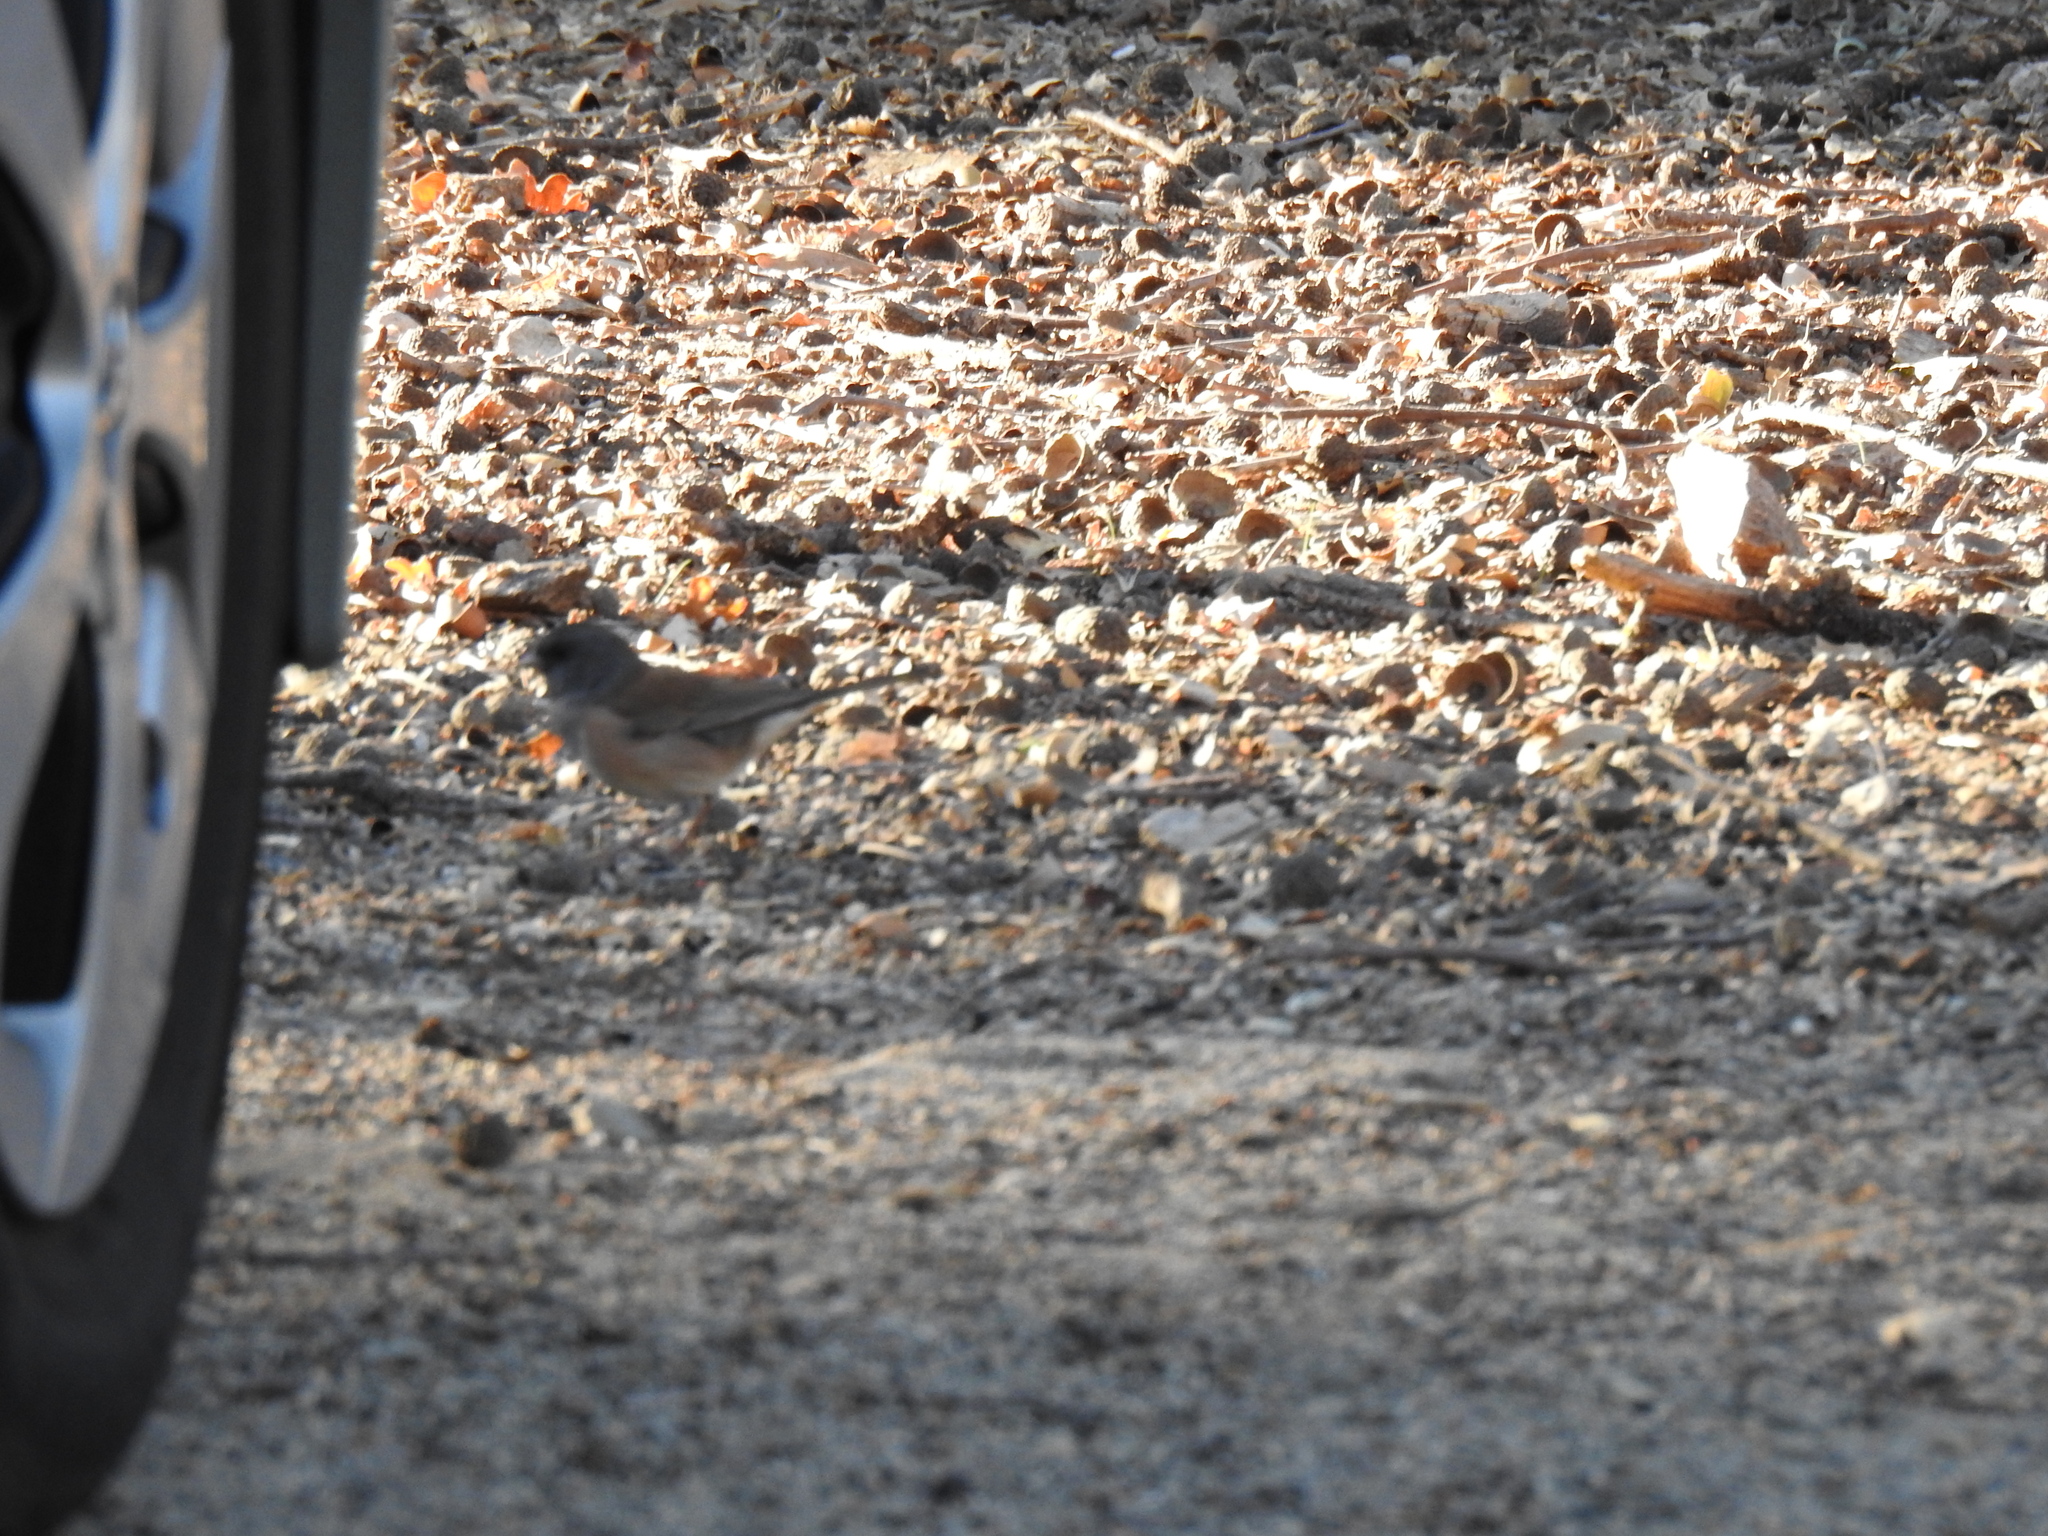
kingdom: Animalia
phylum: Chordata
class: Aves
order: Passeriformes
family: Passerellidae
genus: Junco
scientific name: Junco hyemalis
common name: Dark-eyed junco
